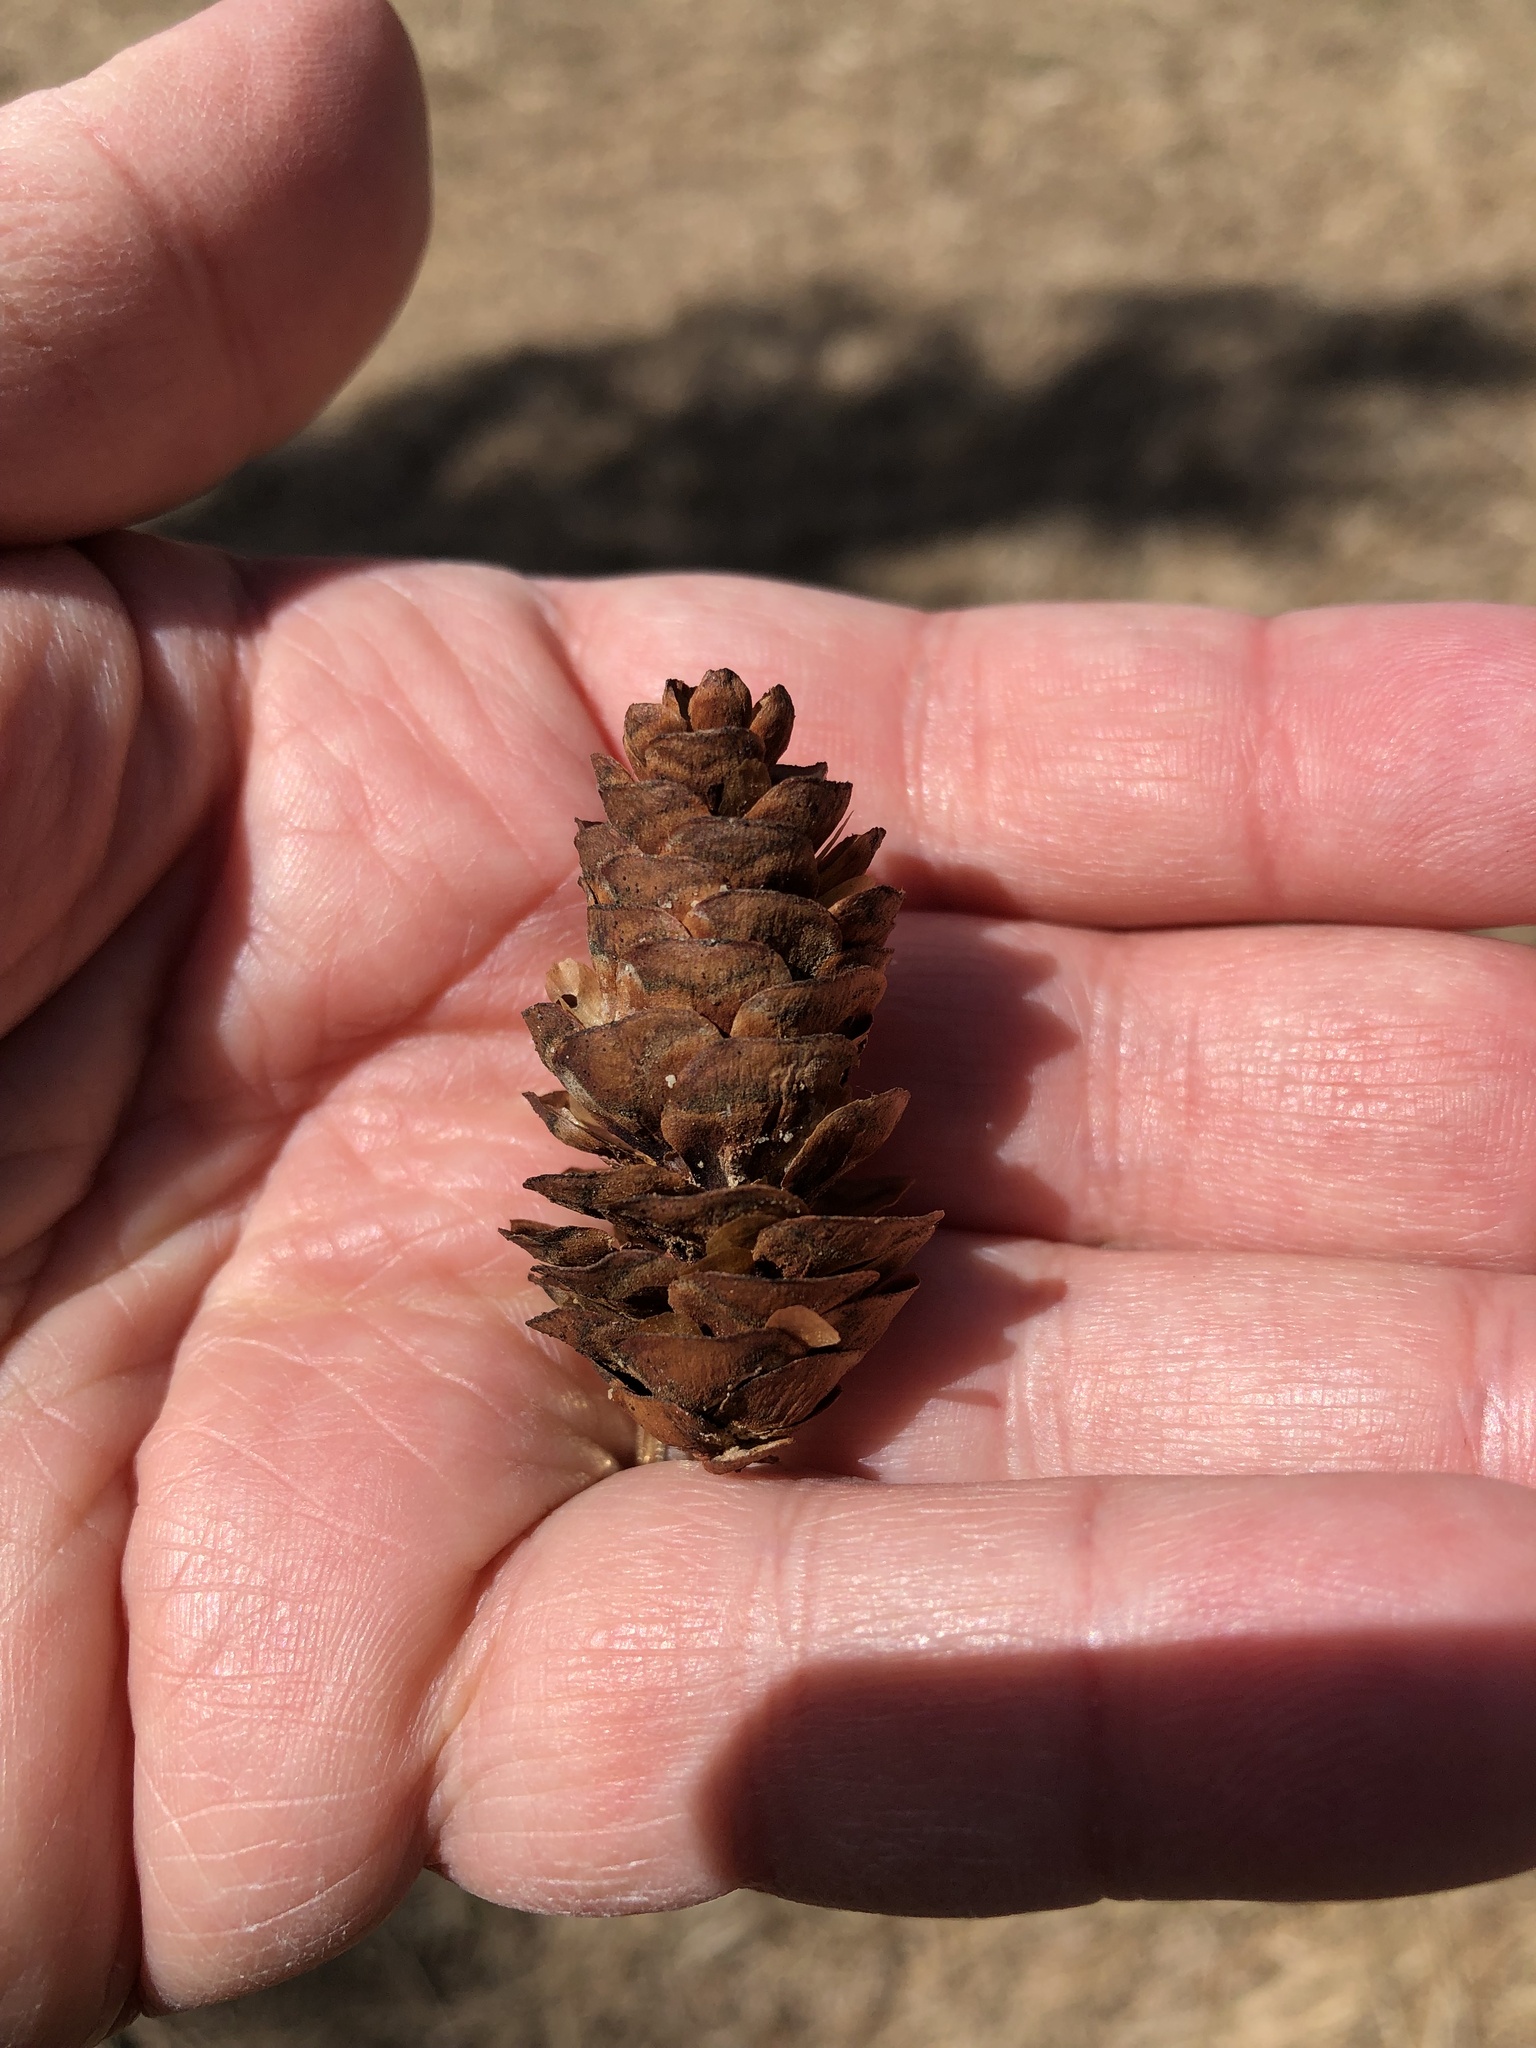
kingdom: Plantae
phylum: Tracheophyta
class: Pinopsida
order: Pinales
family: Pinaceae
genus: Picea
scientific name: Picea glauca
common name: White spruce
